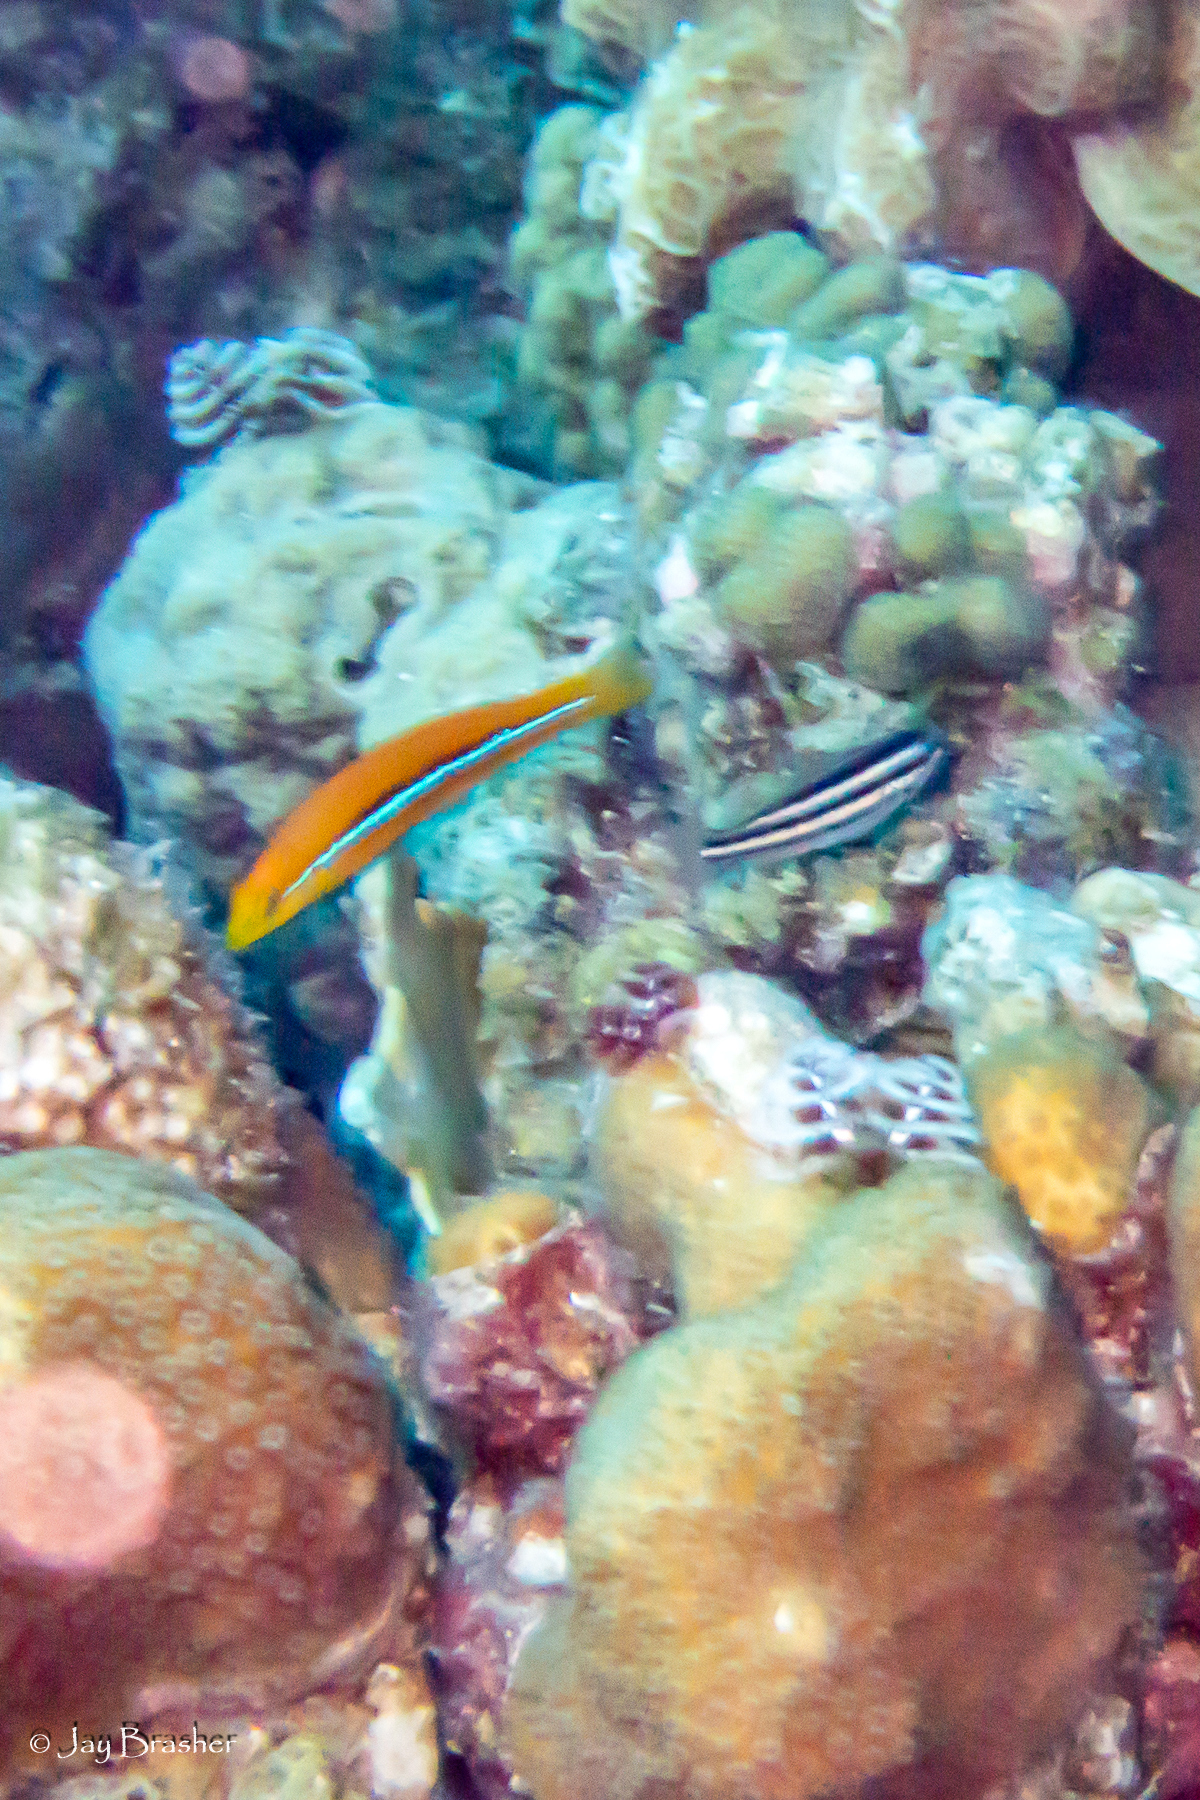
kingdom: Animalia
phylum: Chordata
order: Perciformes
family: Scaridae
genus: Scarus
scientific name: Scarus iseri
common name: Striped parrotfish
